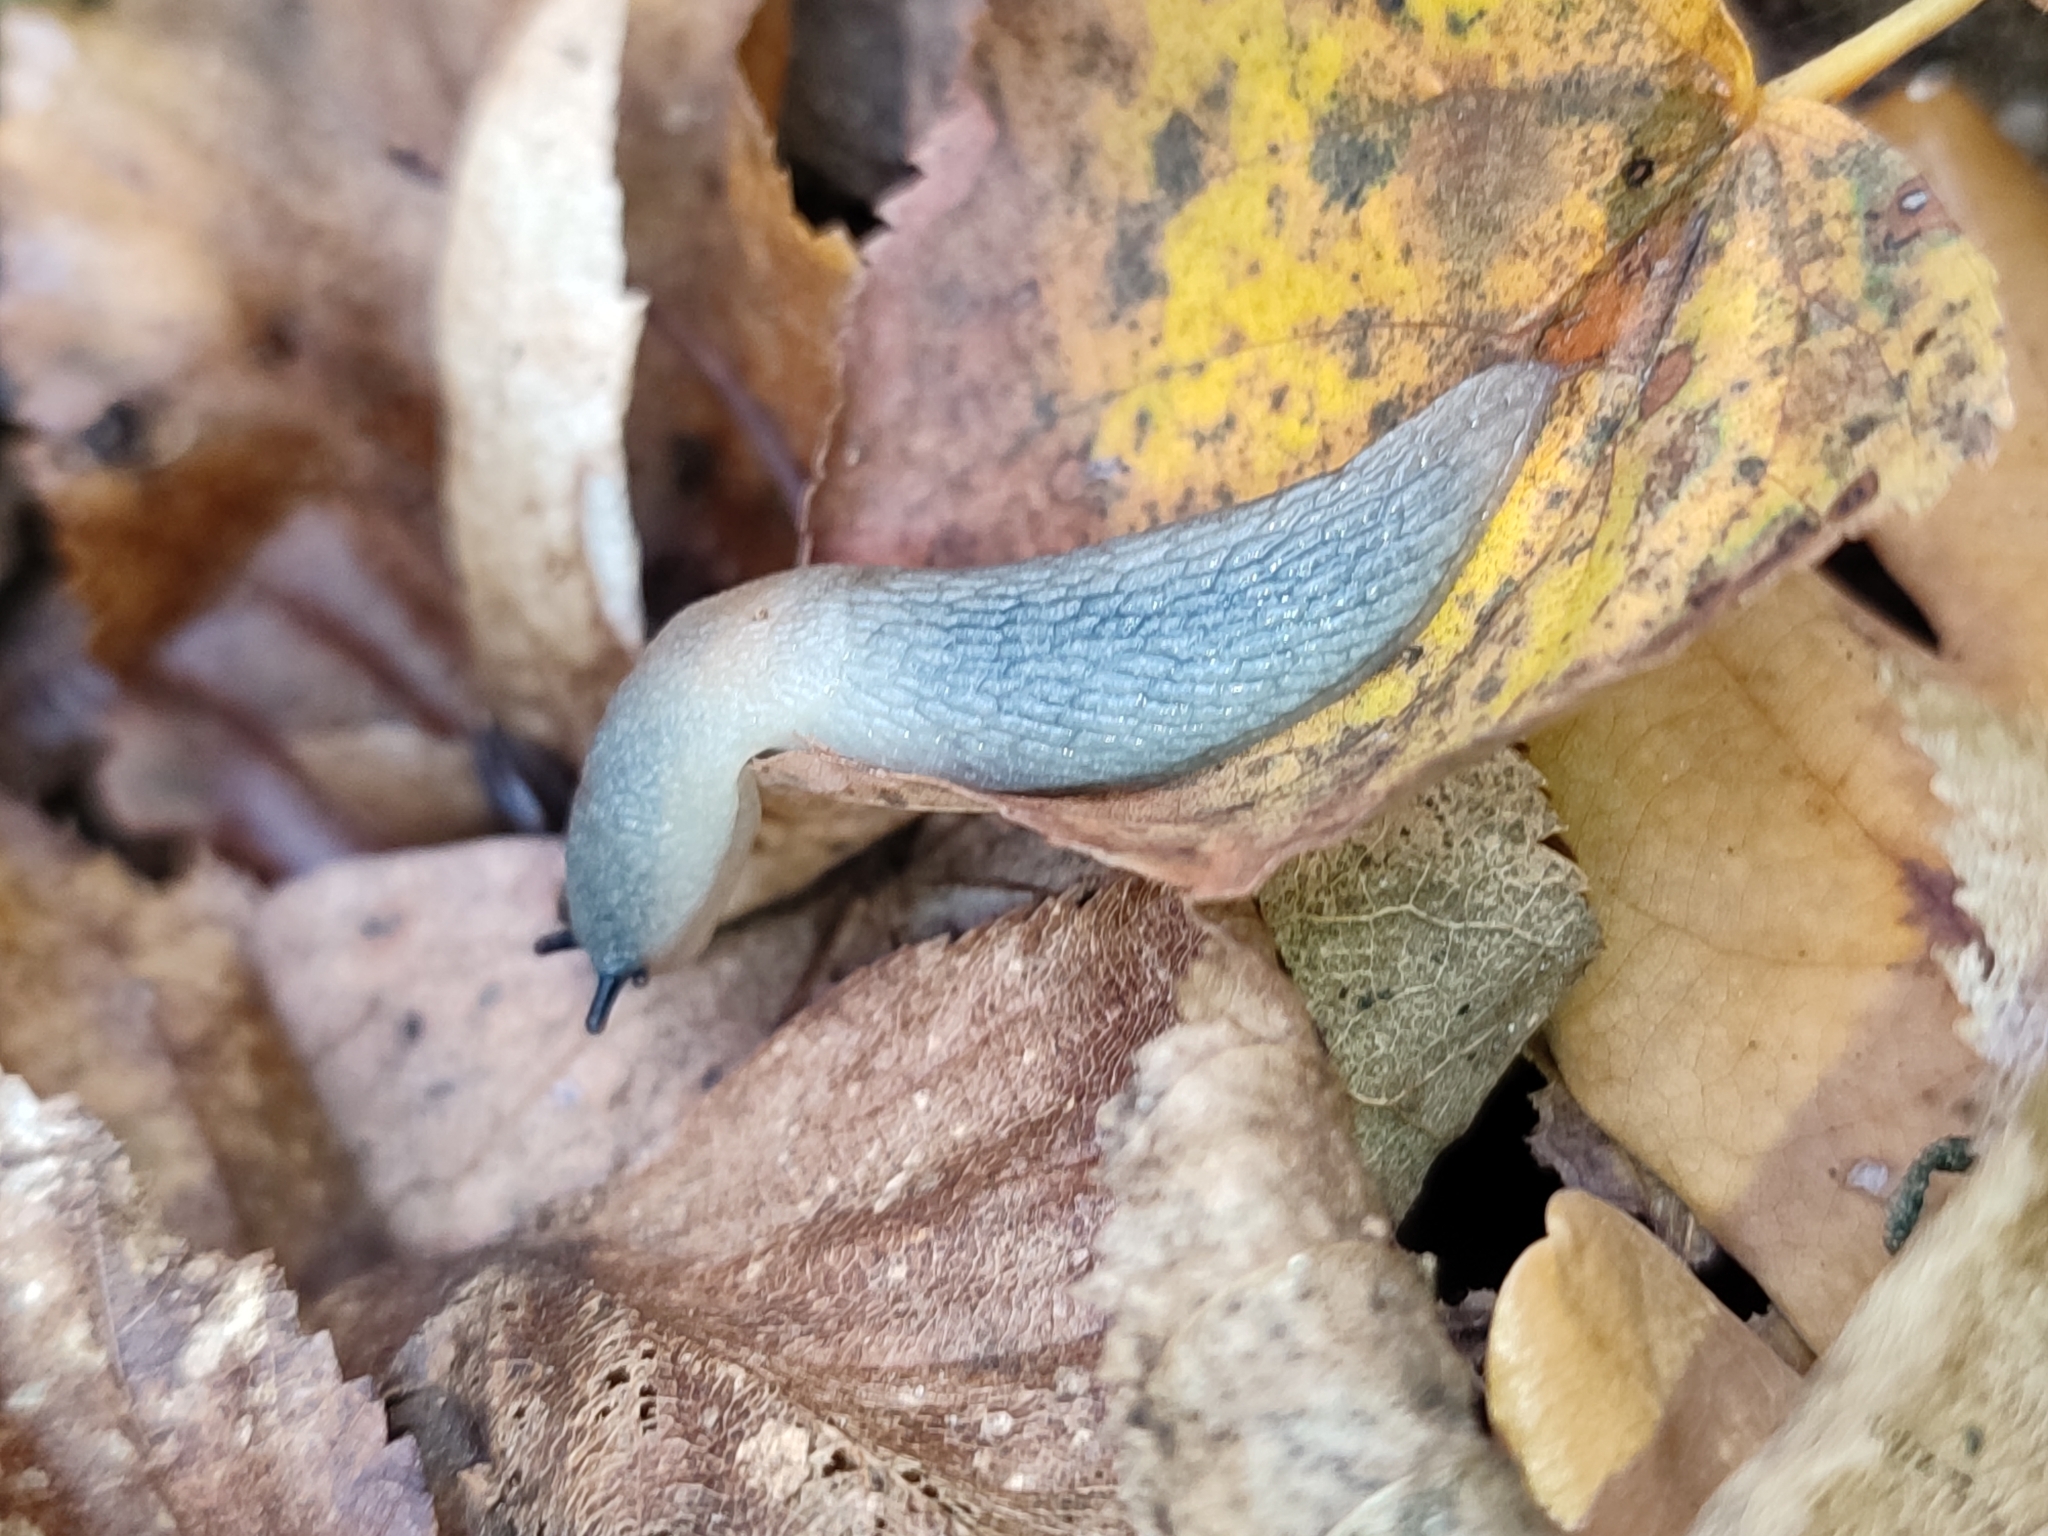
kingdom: Animalia
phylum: Mollusca
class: Gastropoda
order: Stylommatophora
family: Agriolimacidae
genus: Krynickillus
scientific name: Krynickillus melanocephalus
